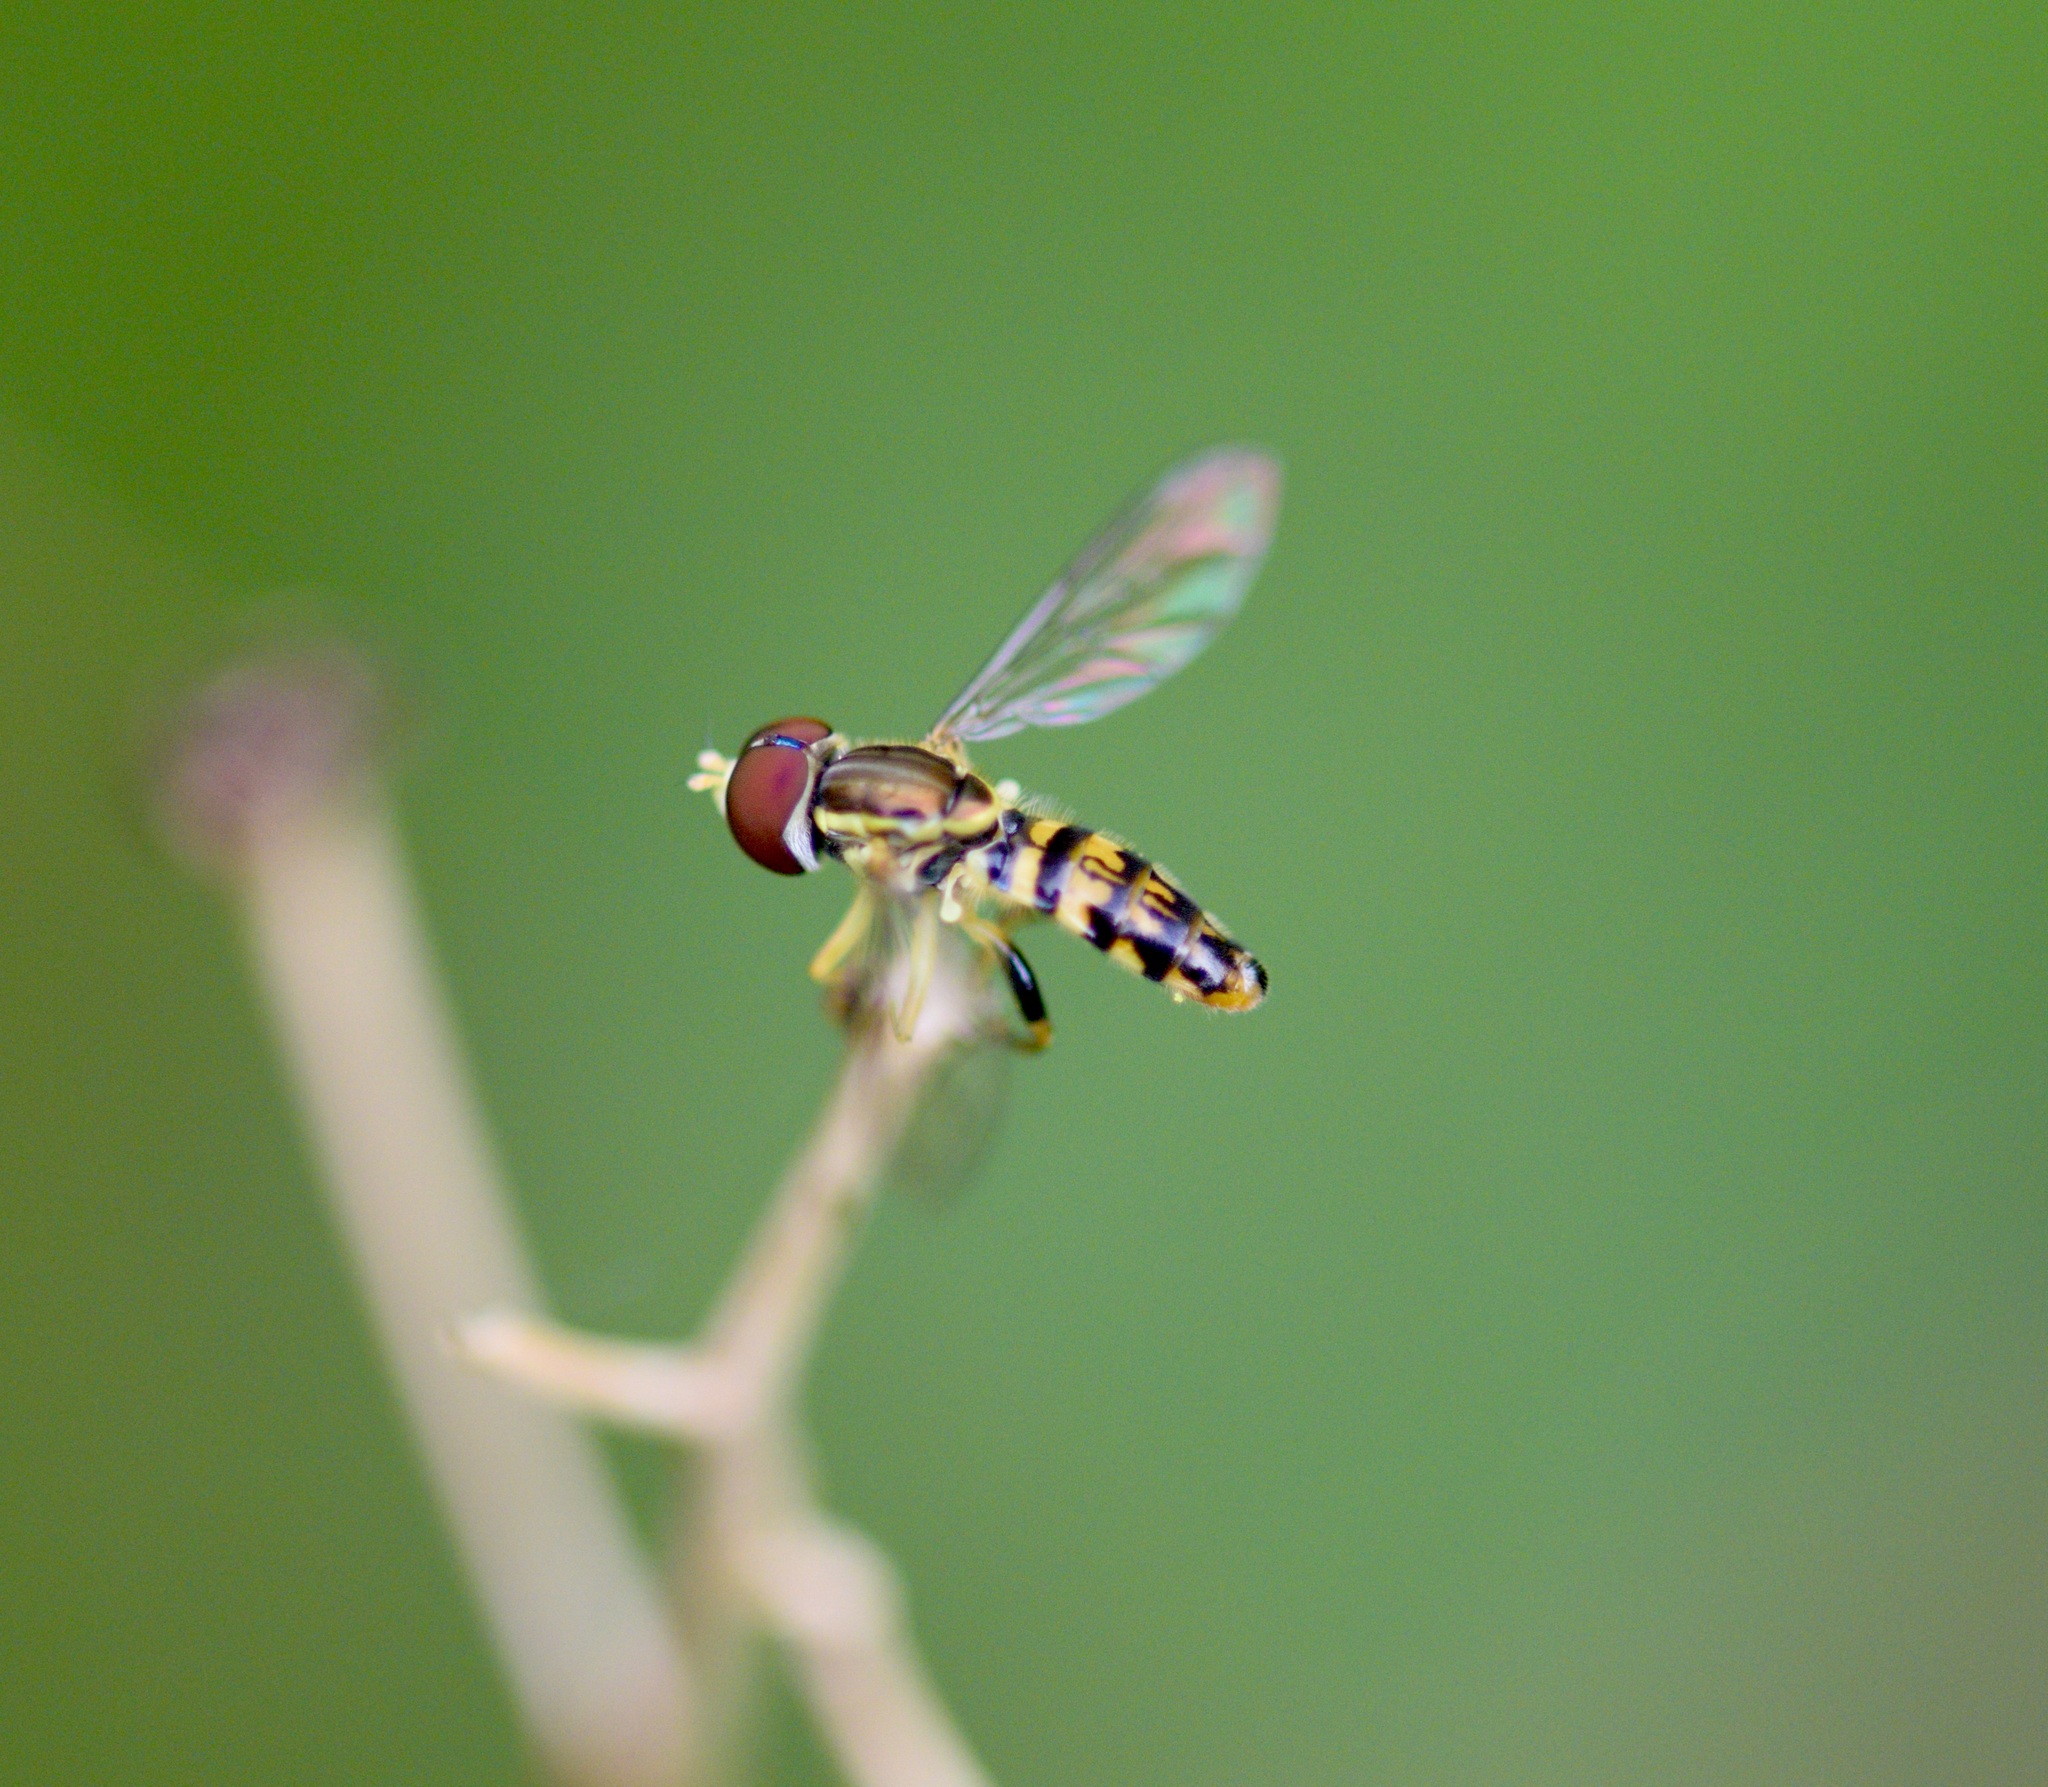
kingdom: Animalia
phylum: Arthropoda
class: Insecta
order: Diptera
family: Syrphidae
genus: Toxomerus
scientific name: Toxomerus geminatus
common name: Eastern calligrapher
